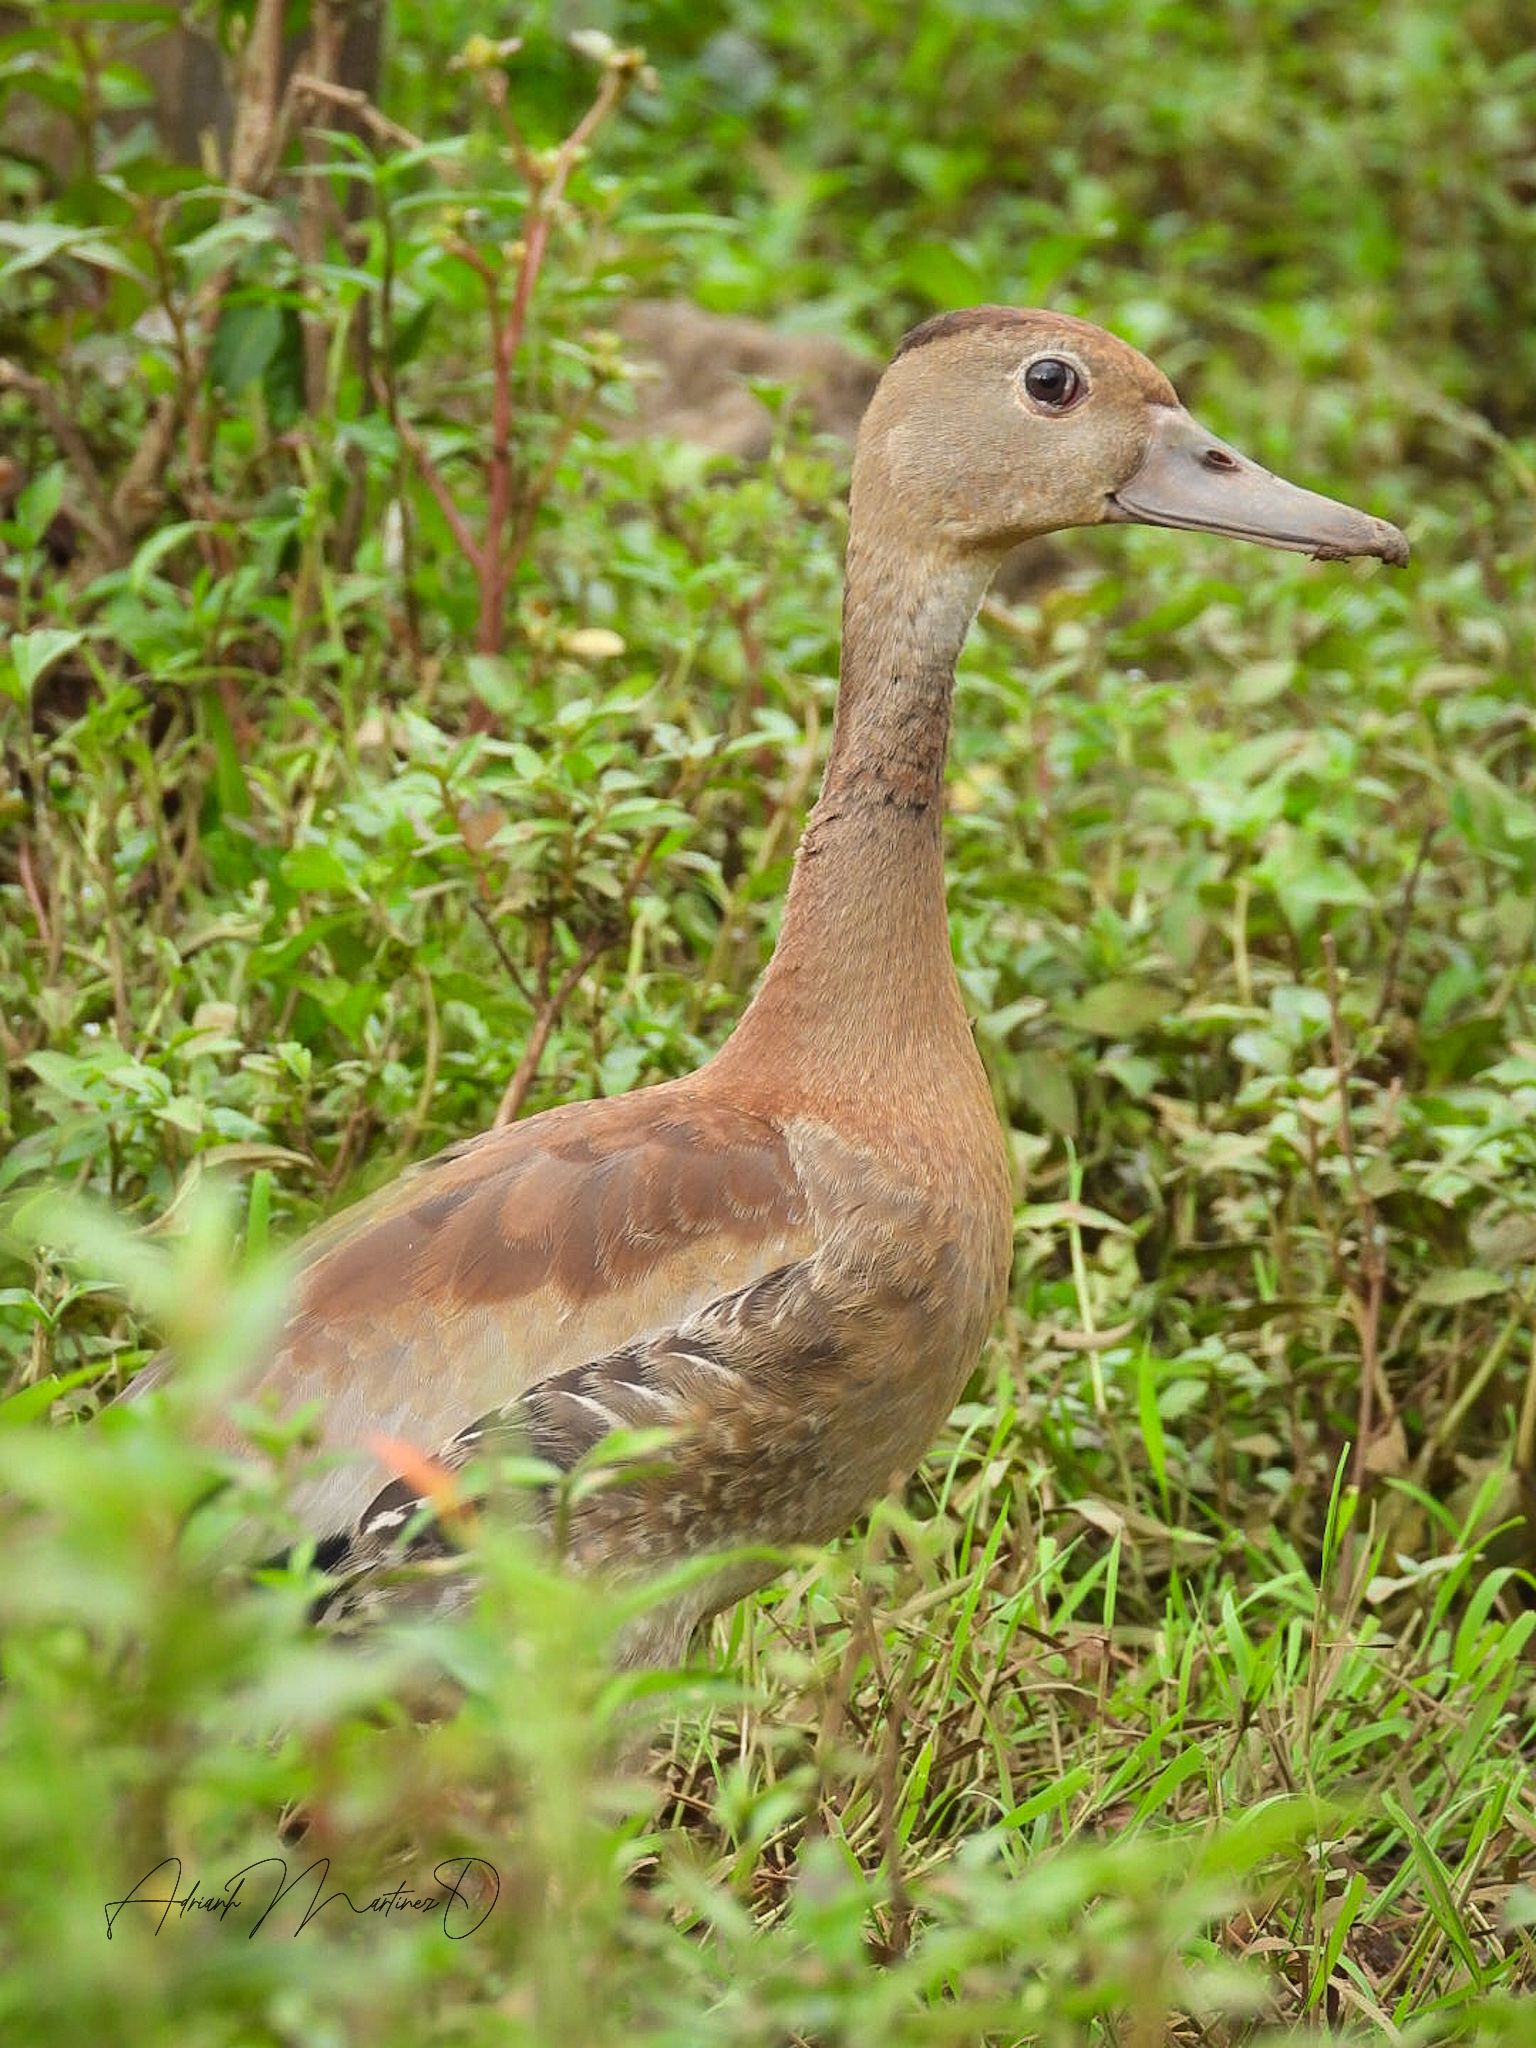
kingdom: Animalia
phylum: Chordata
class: Aves
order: Anseriformes
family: Anatidae
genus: Dendrocygna
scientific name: Dendrocygna autumnalis
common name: Black-bellied whistling duck
